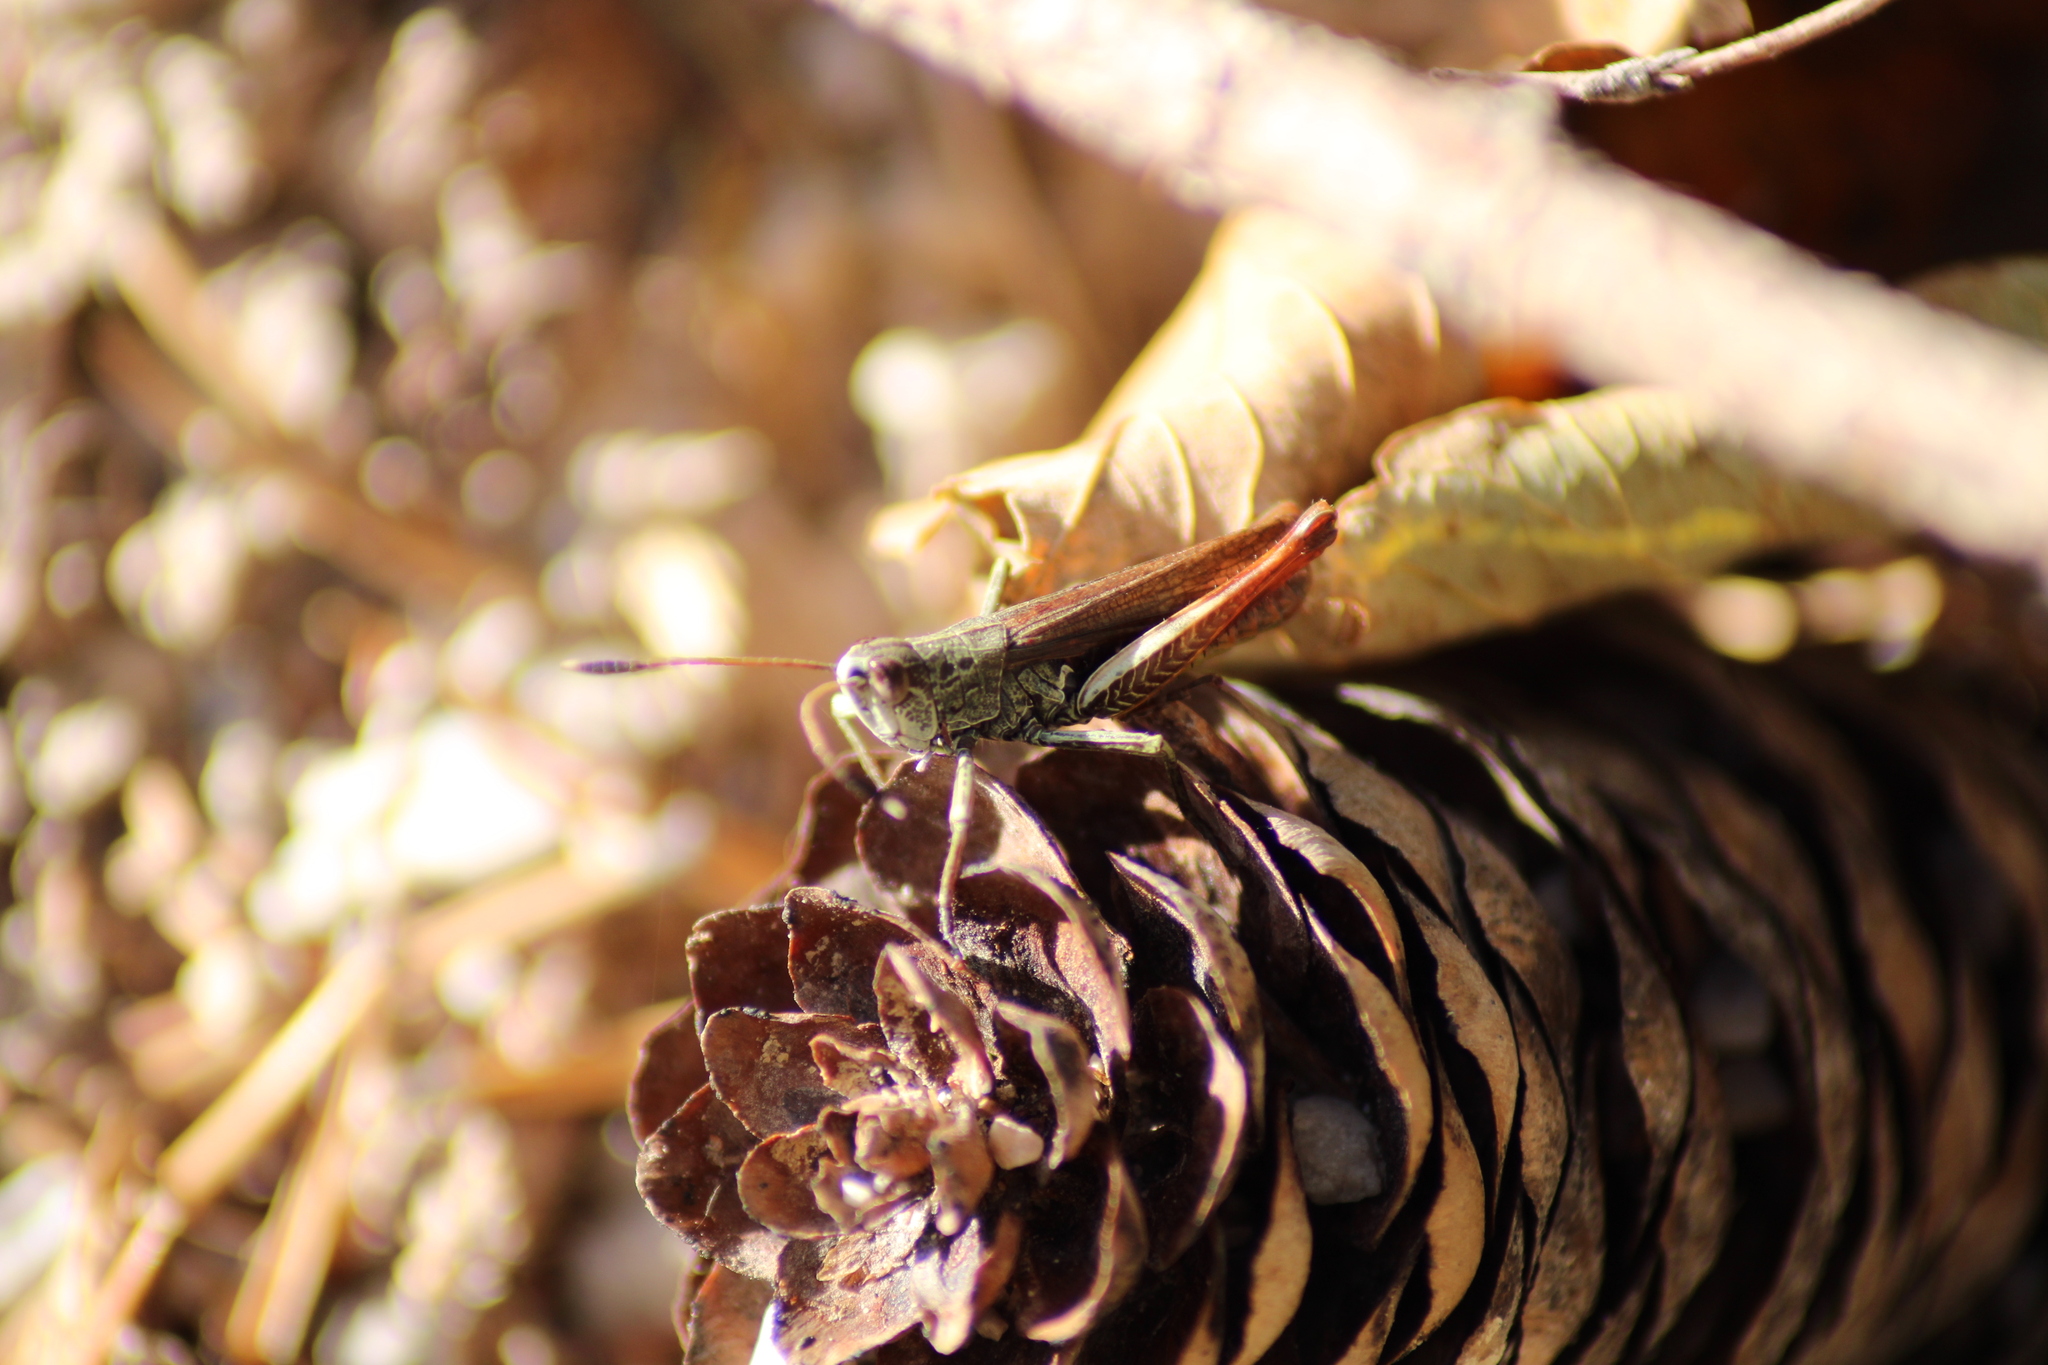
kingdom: Animalia
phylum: Arthropoda
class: Insecta
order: Orthoptera
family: Acrididae
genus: Gomphocerippus
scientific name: Gomphocerippus rufus
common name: Rufous grasshopper
